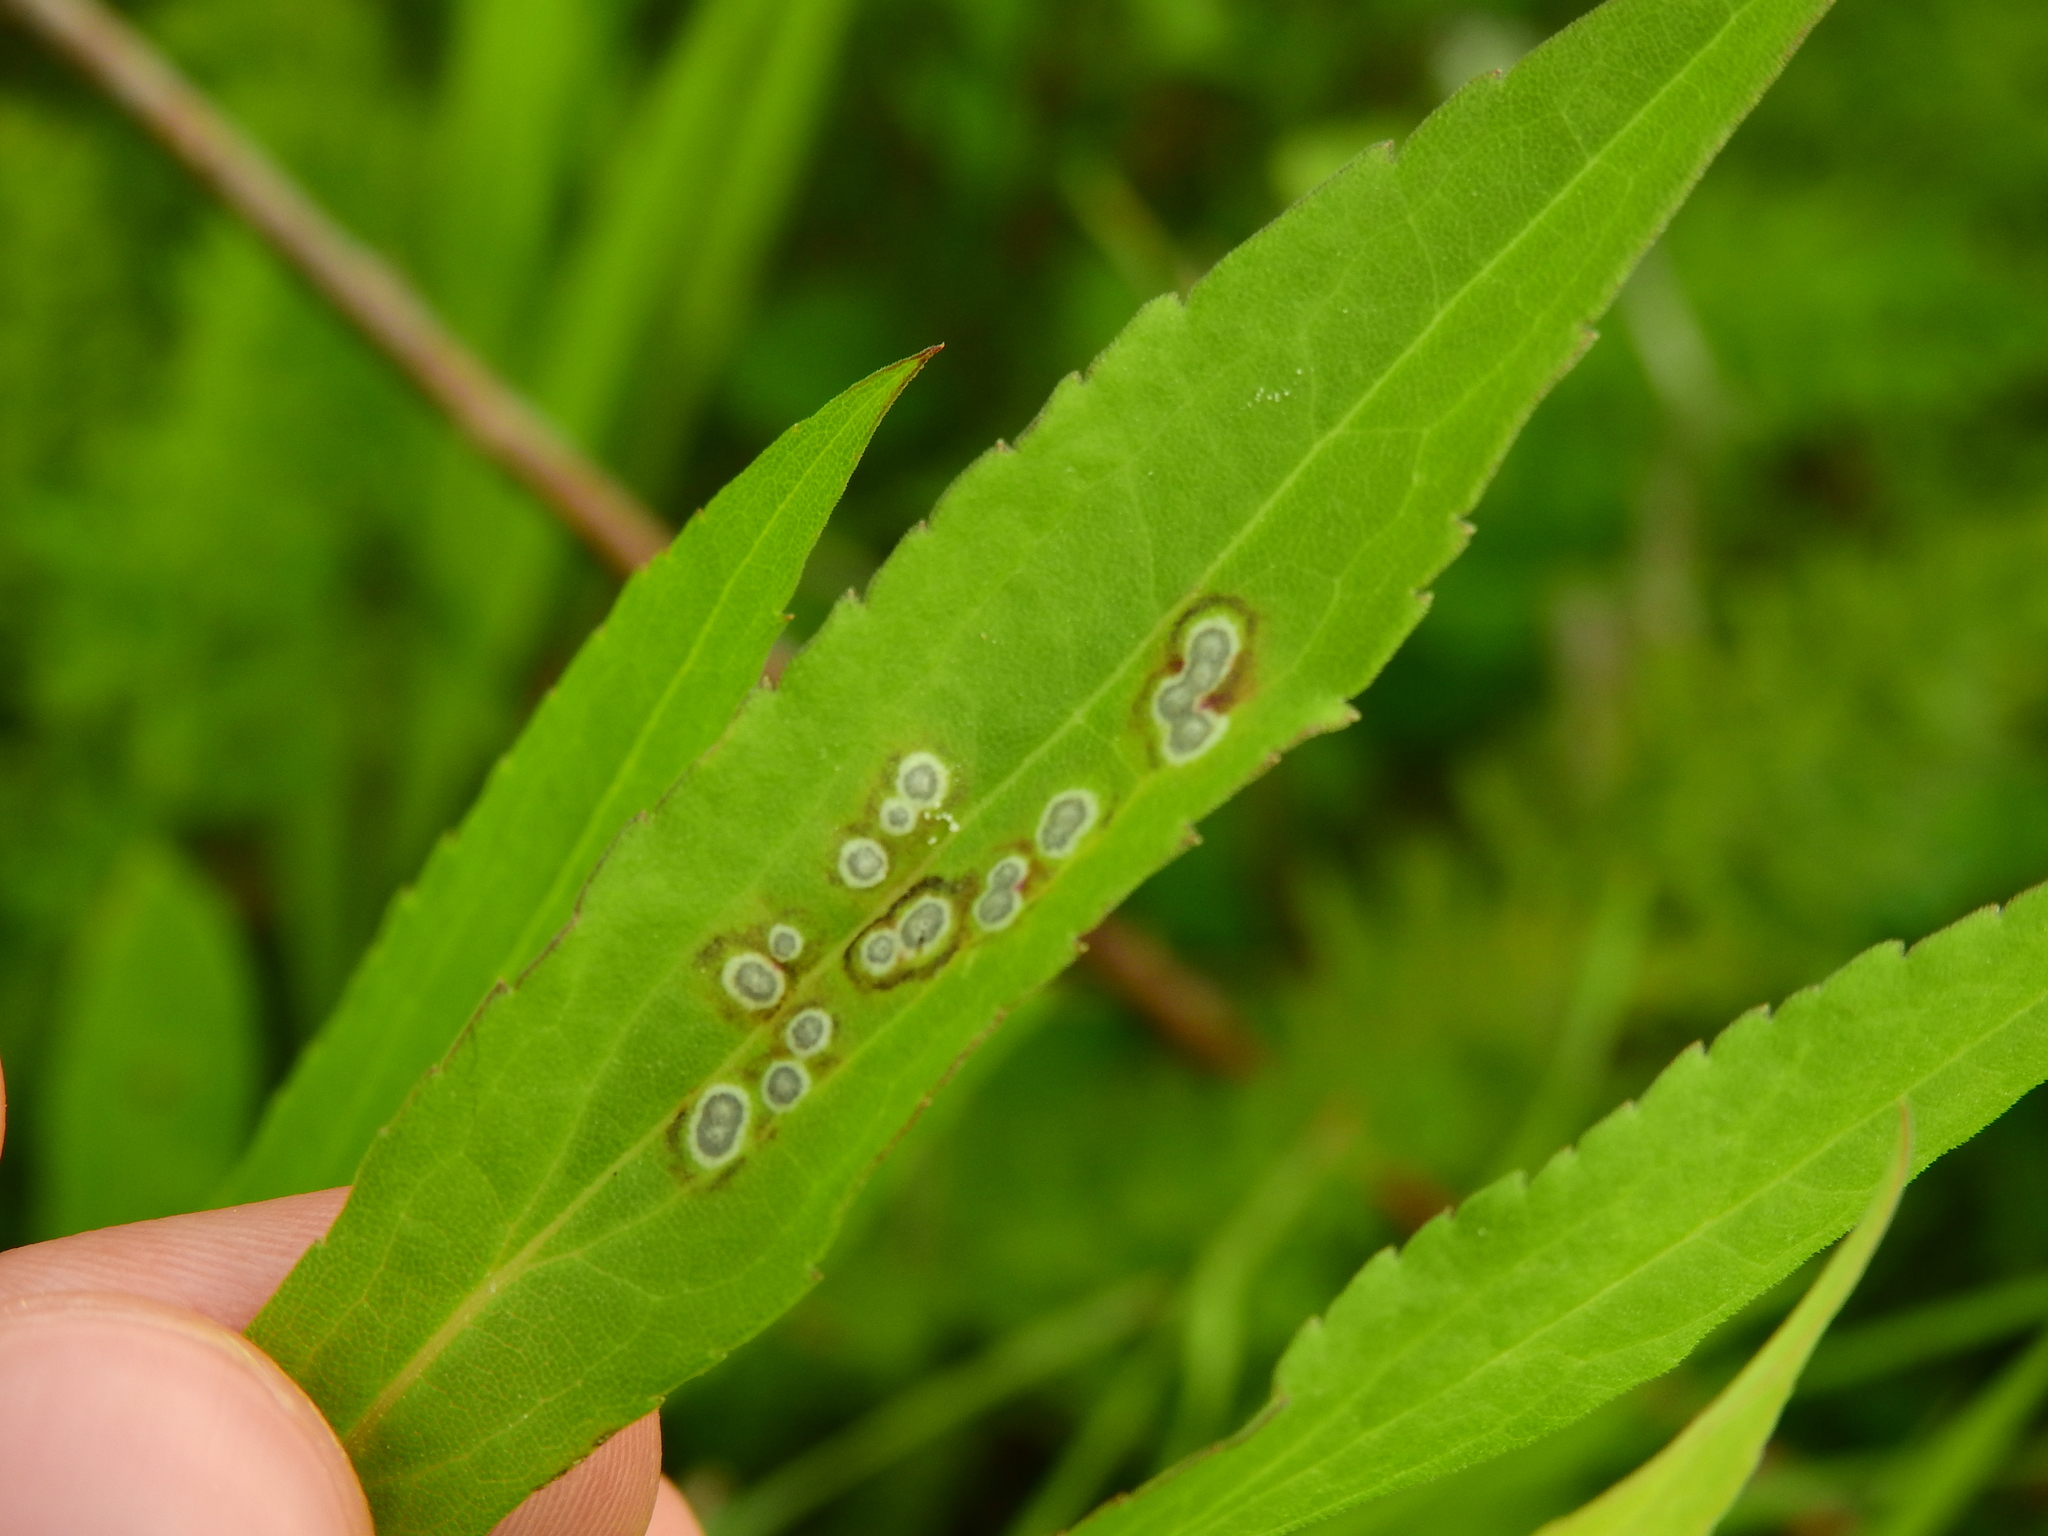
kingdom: Animalia
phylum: Arthropoda
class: Insecta
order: Diptera
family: Cecidomyiidae
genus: Asteromyia
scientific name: Asteromyia carbonifera
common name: Carbonifera goldenrod gall midge
